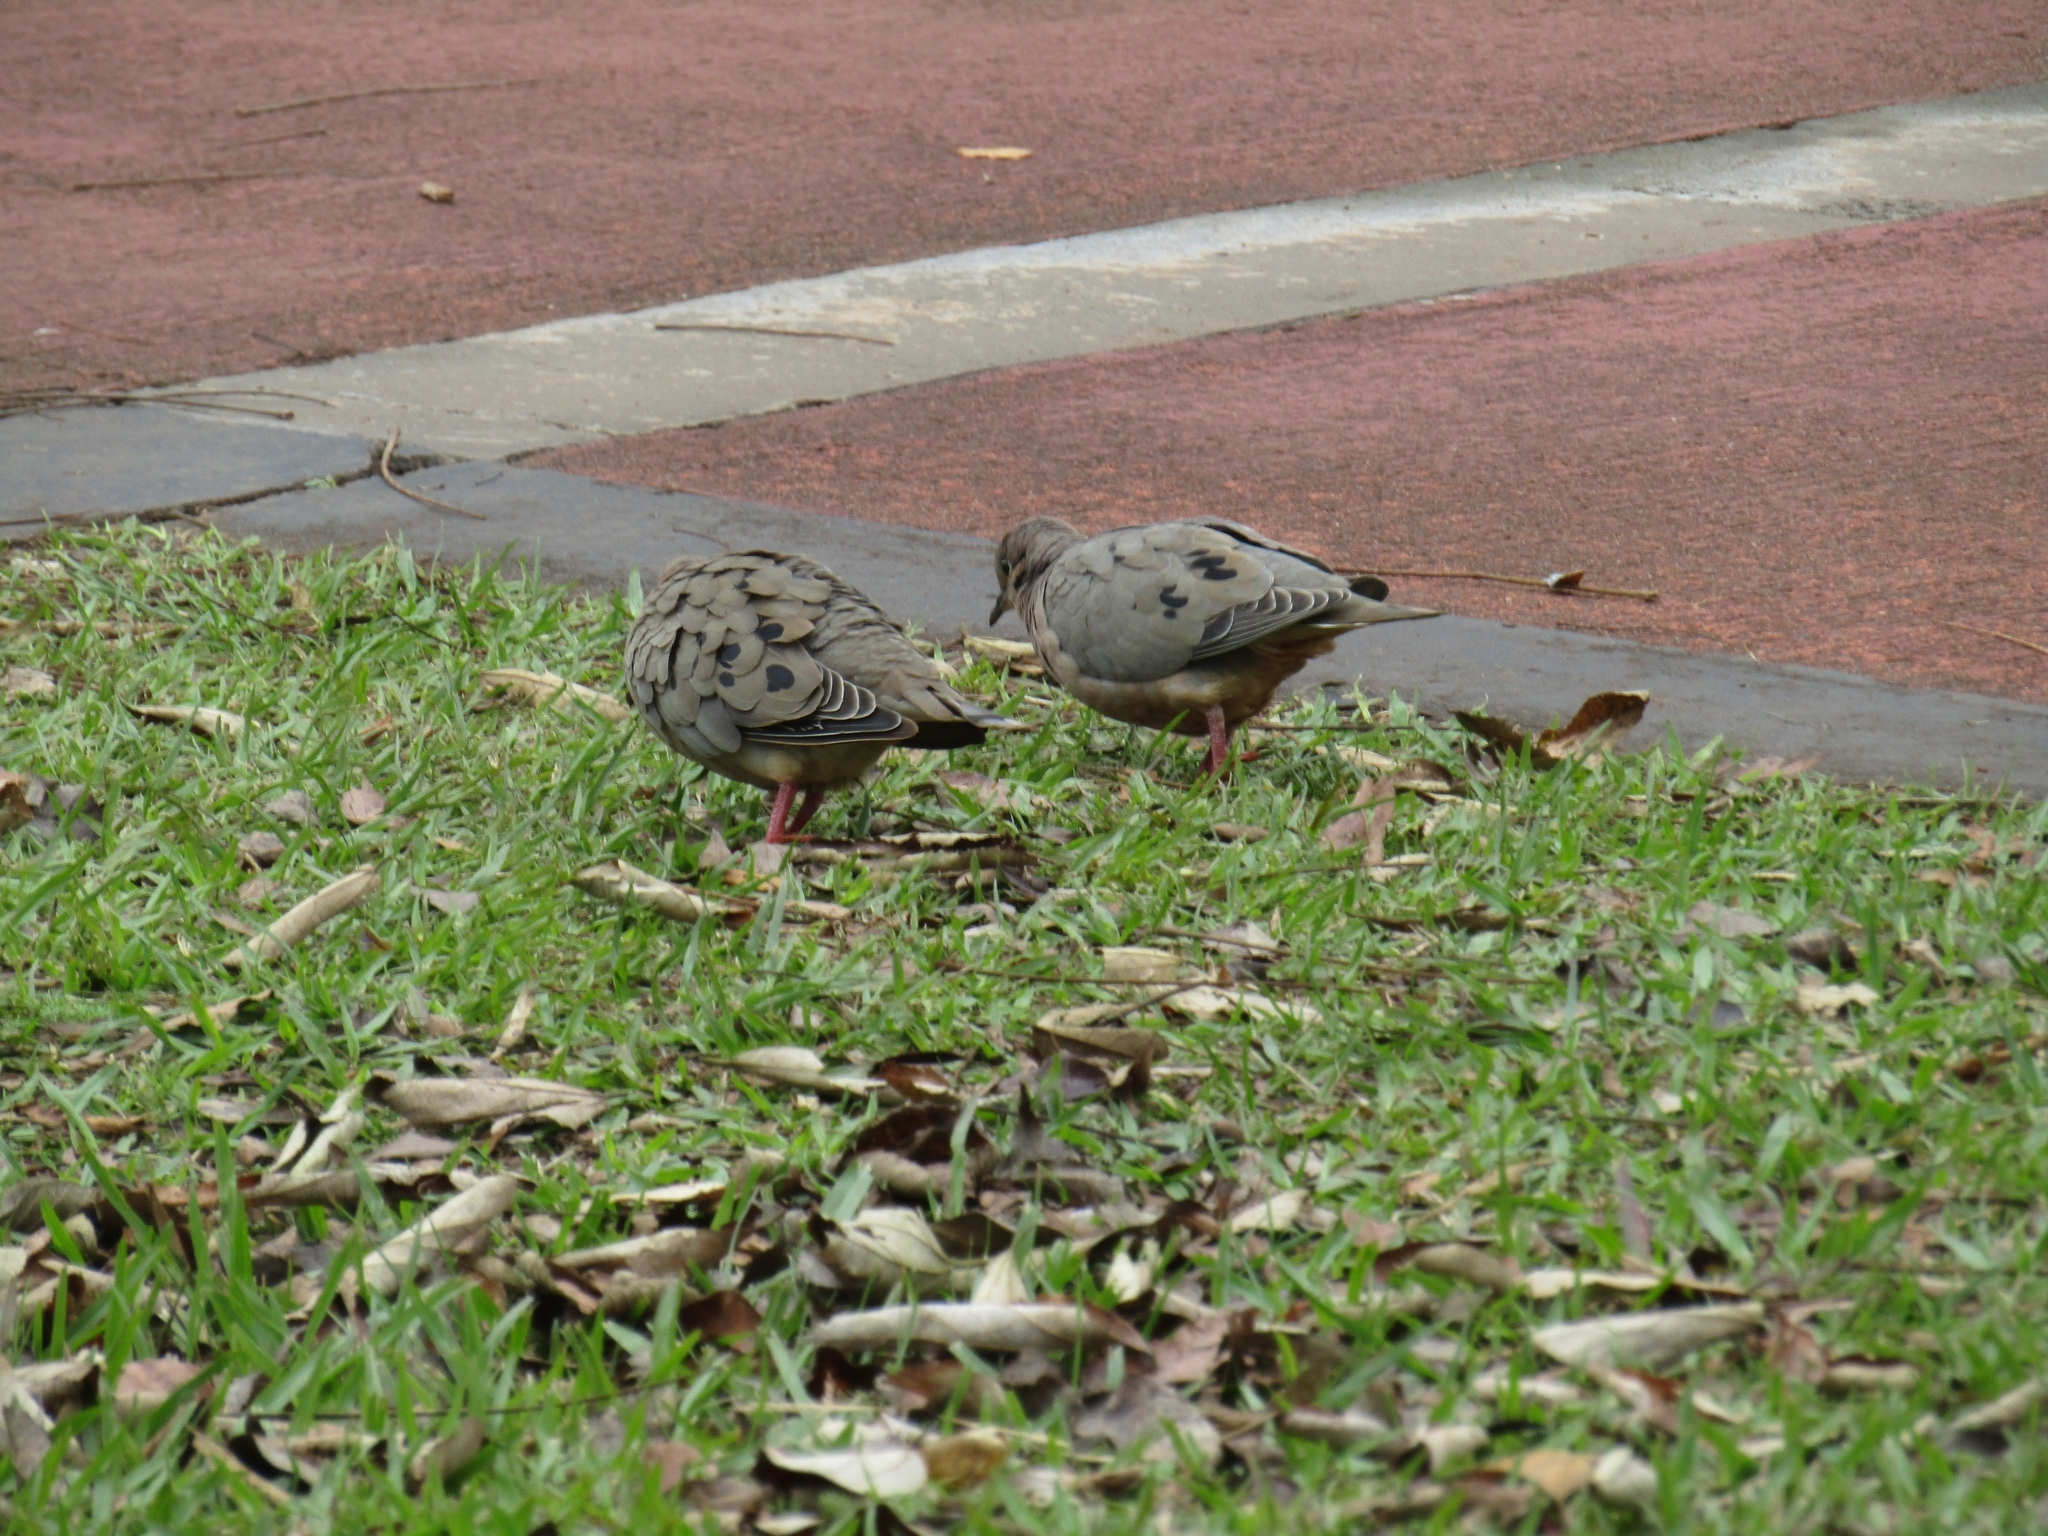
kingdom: Animalia
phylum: Chordata
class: Aves
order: Columbiformes
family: Columbidae
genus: Zenaida
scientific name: Zenaida auriculata
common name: Eared dove
